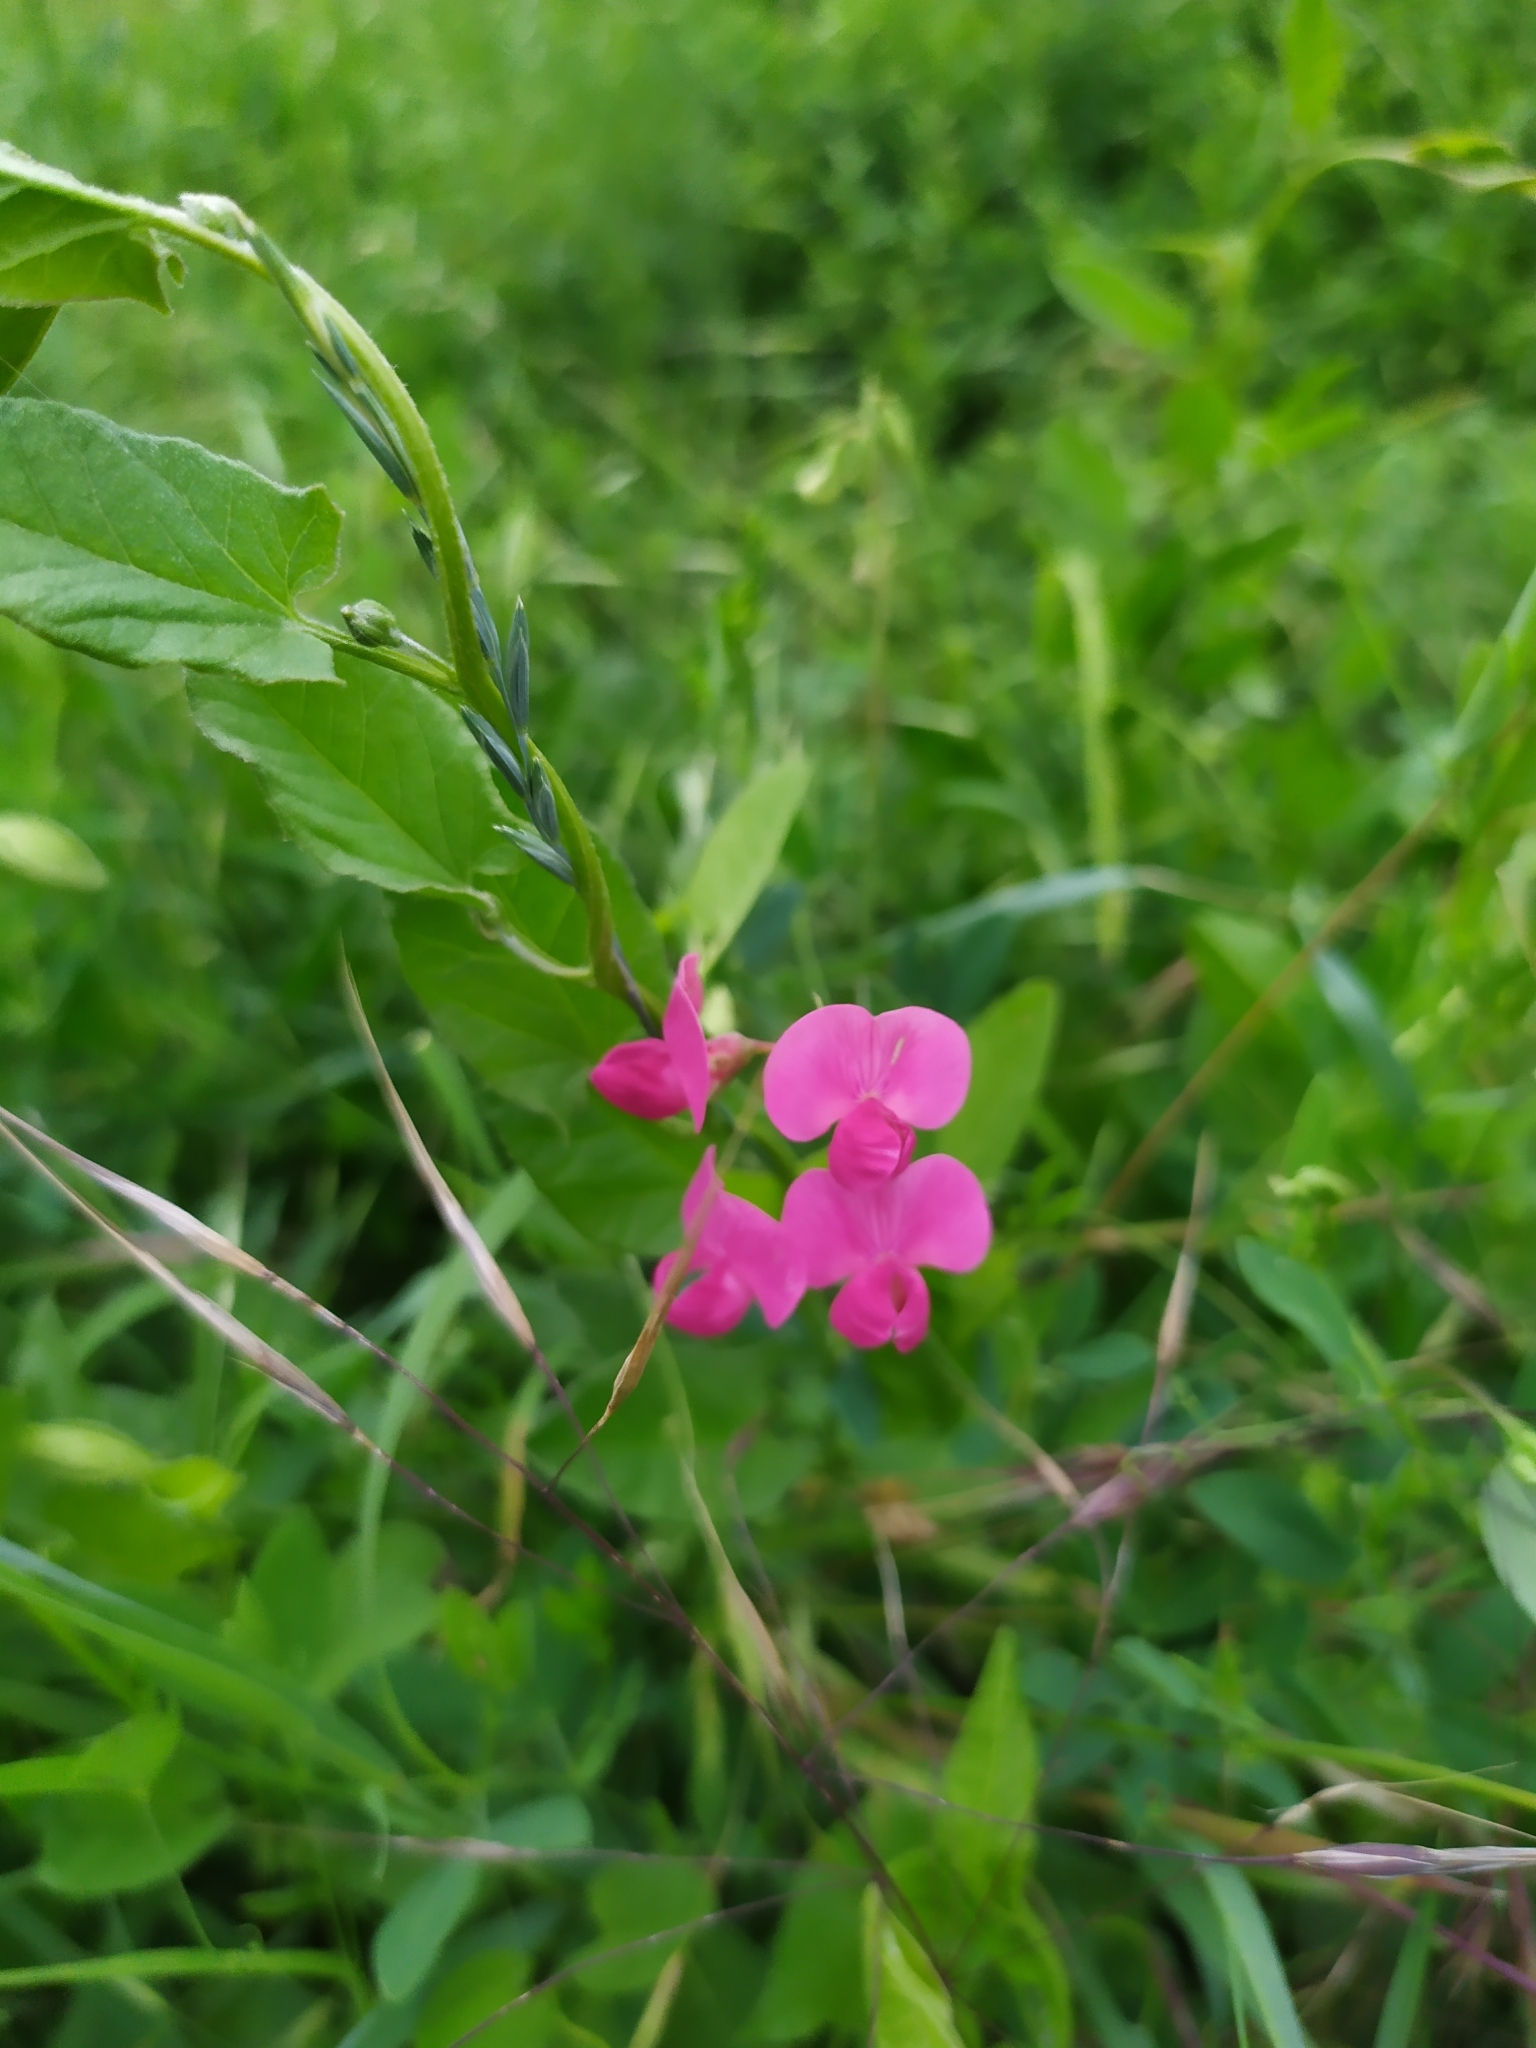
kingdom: Plantae
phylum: Tracheophyta
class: Magnoliopsida
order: Fabales
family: Fabaceae
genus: Lathyrus
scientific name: Lathyrus tuberosus
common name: Tuberous pea
